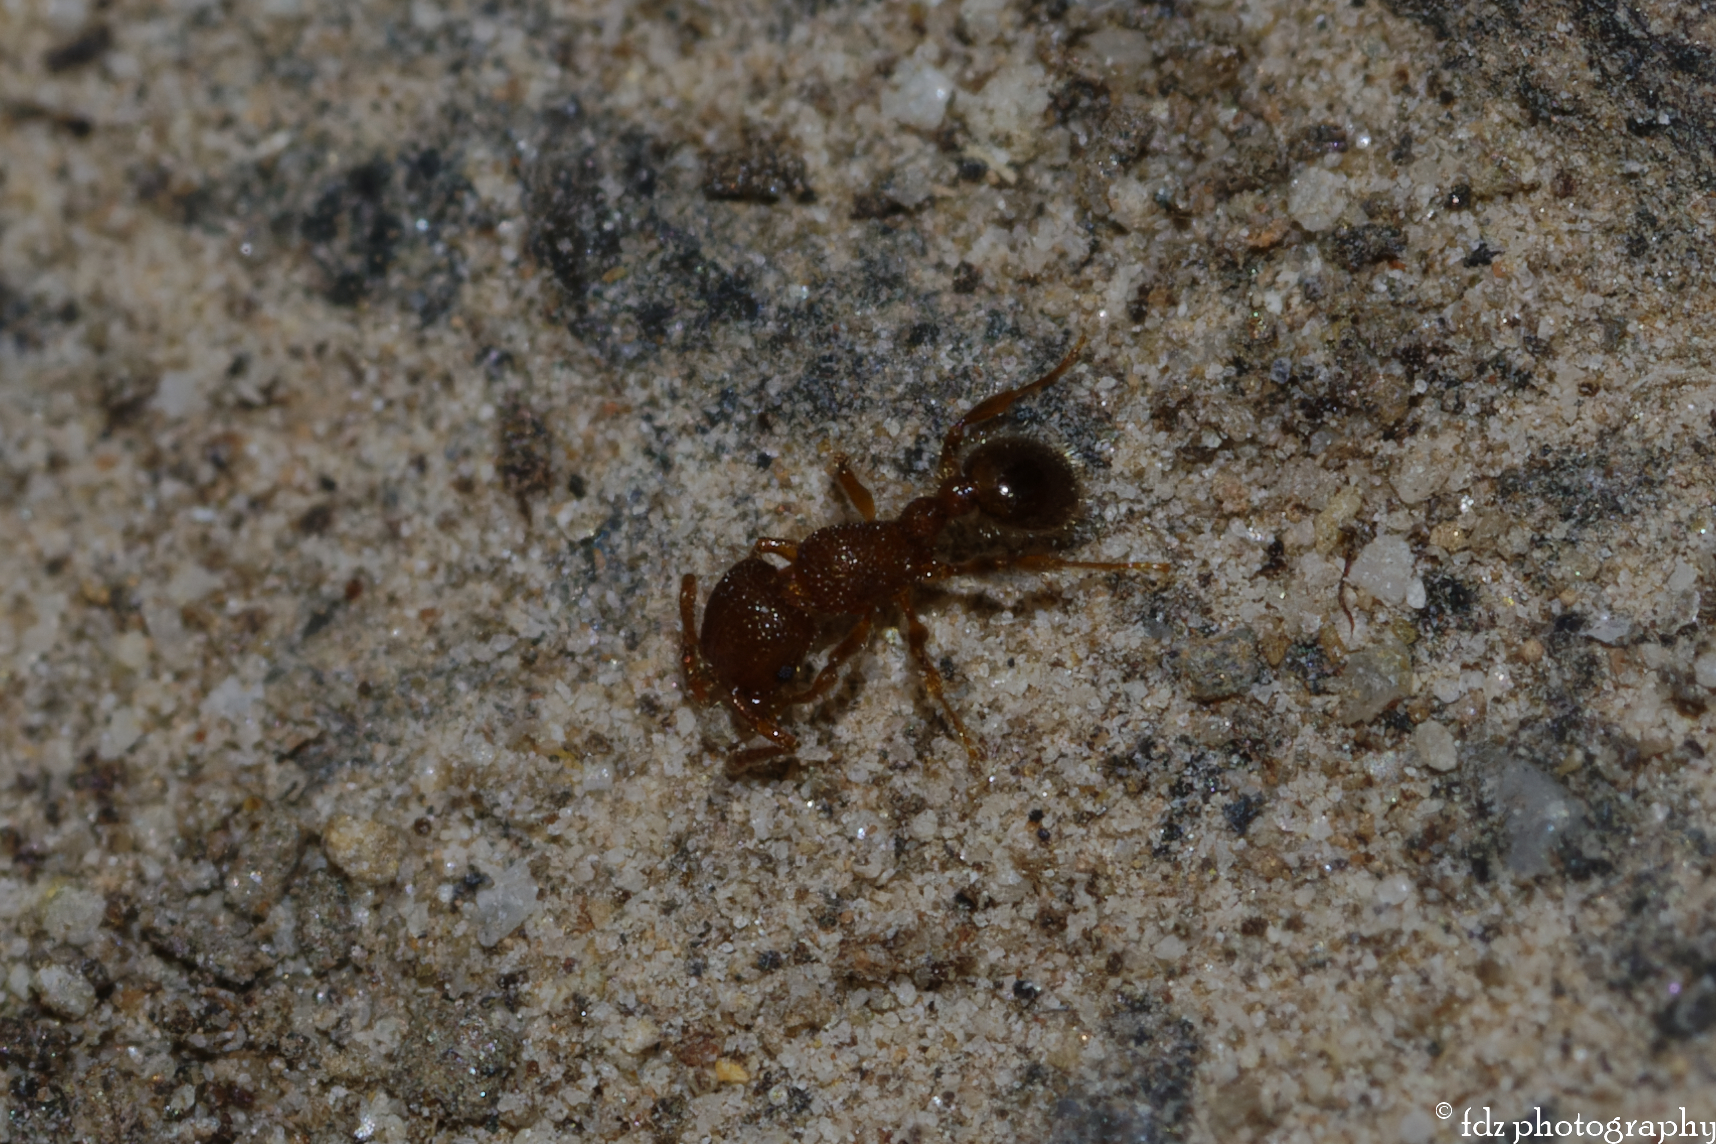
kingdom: Animalia
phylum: Arthropoda
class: Insecta
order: Hymenoptera
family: Formicidae
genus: Tetramorium
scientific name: Tetramorium lanuginosum
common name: Ant
